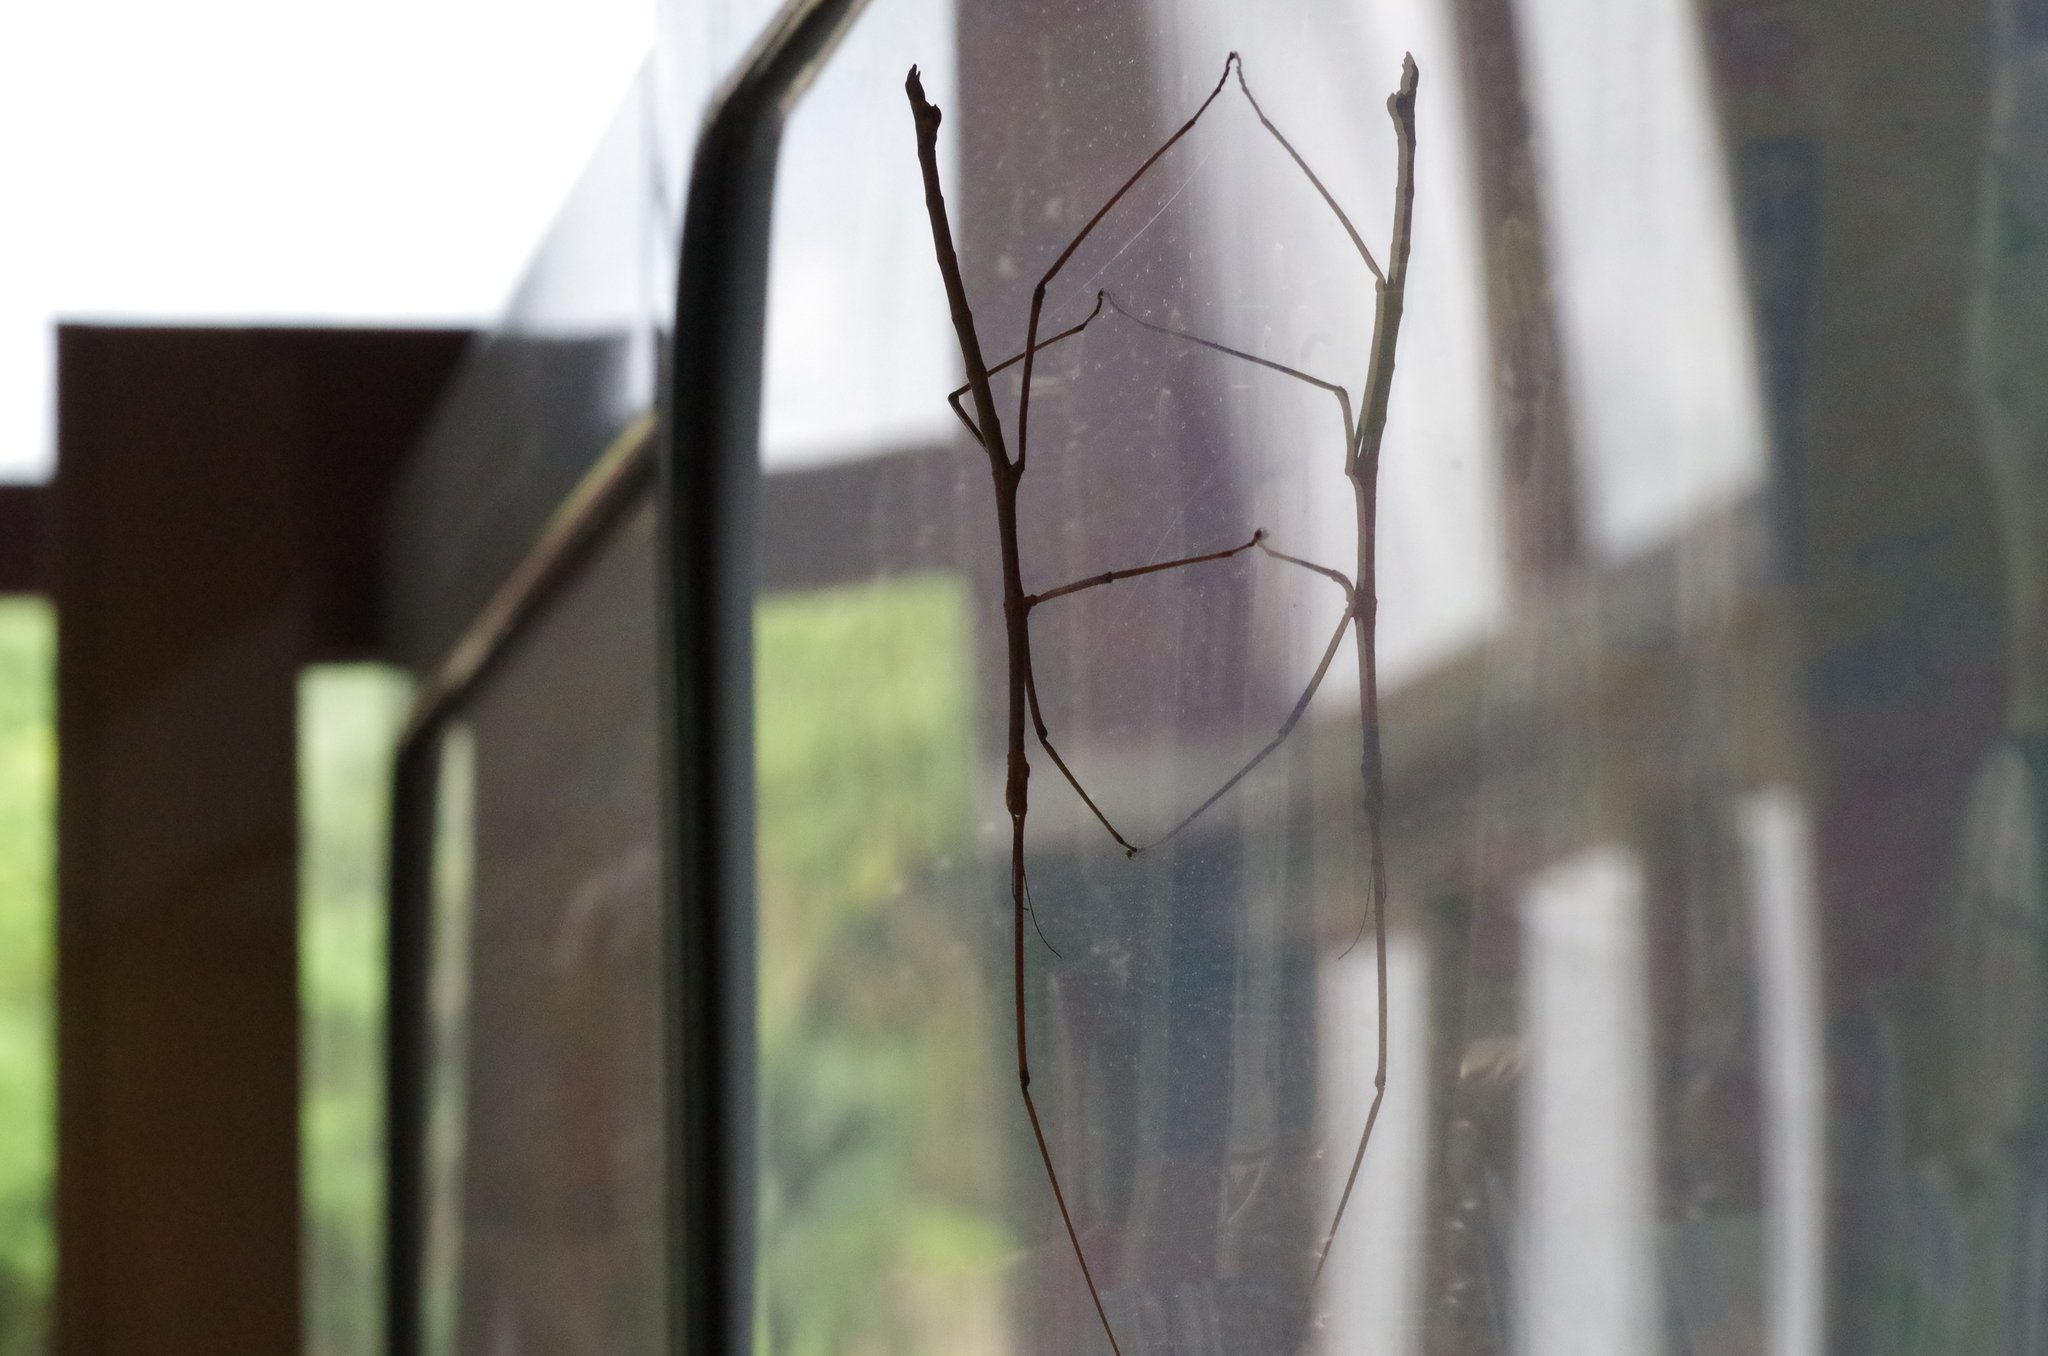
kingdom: Animalia
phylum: Arthropoda
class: Insecta
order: Phasmida
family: Phasmatidae
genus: Entoria
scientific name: Entoria miyakoensis
